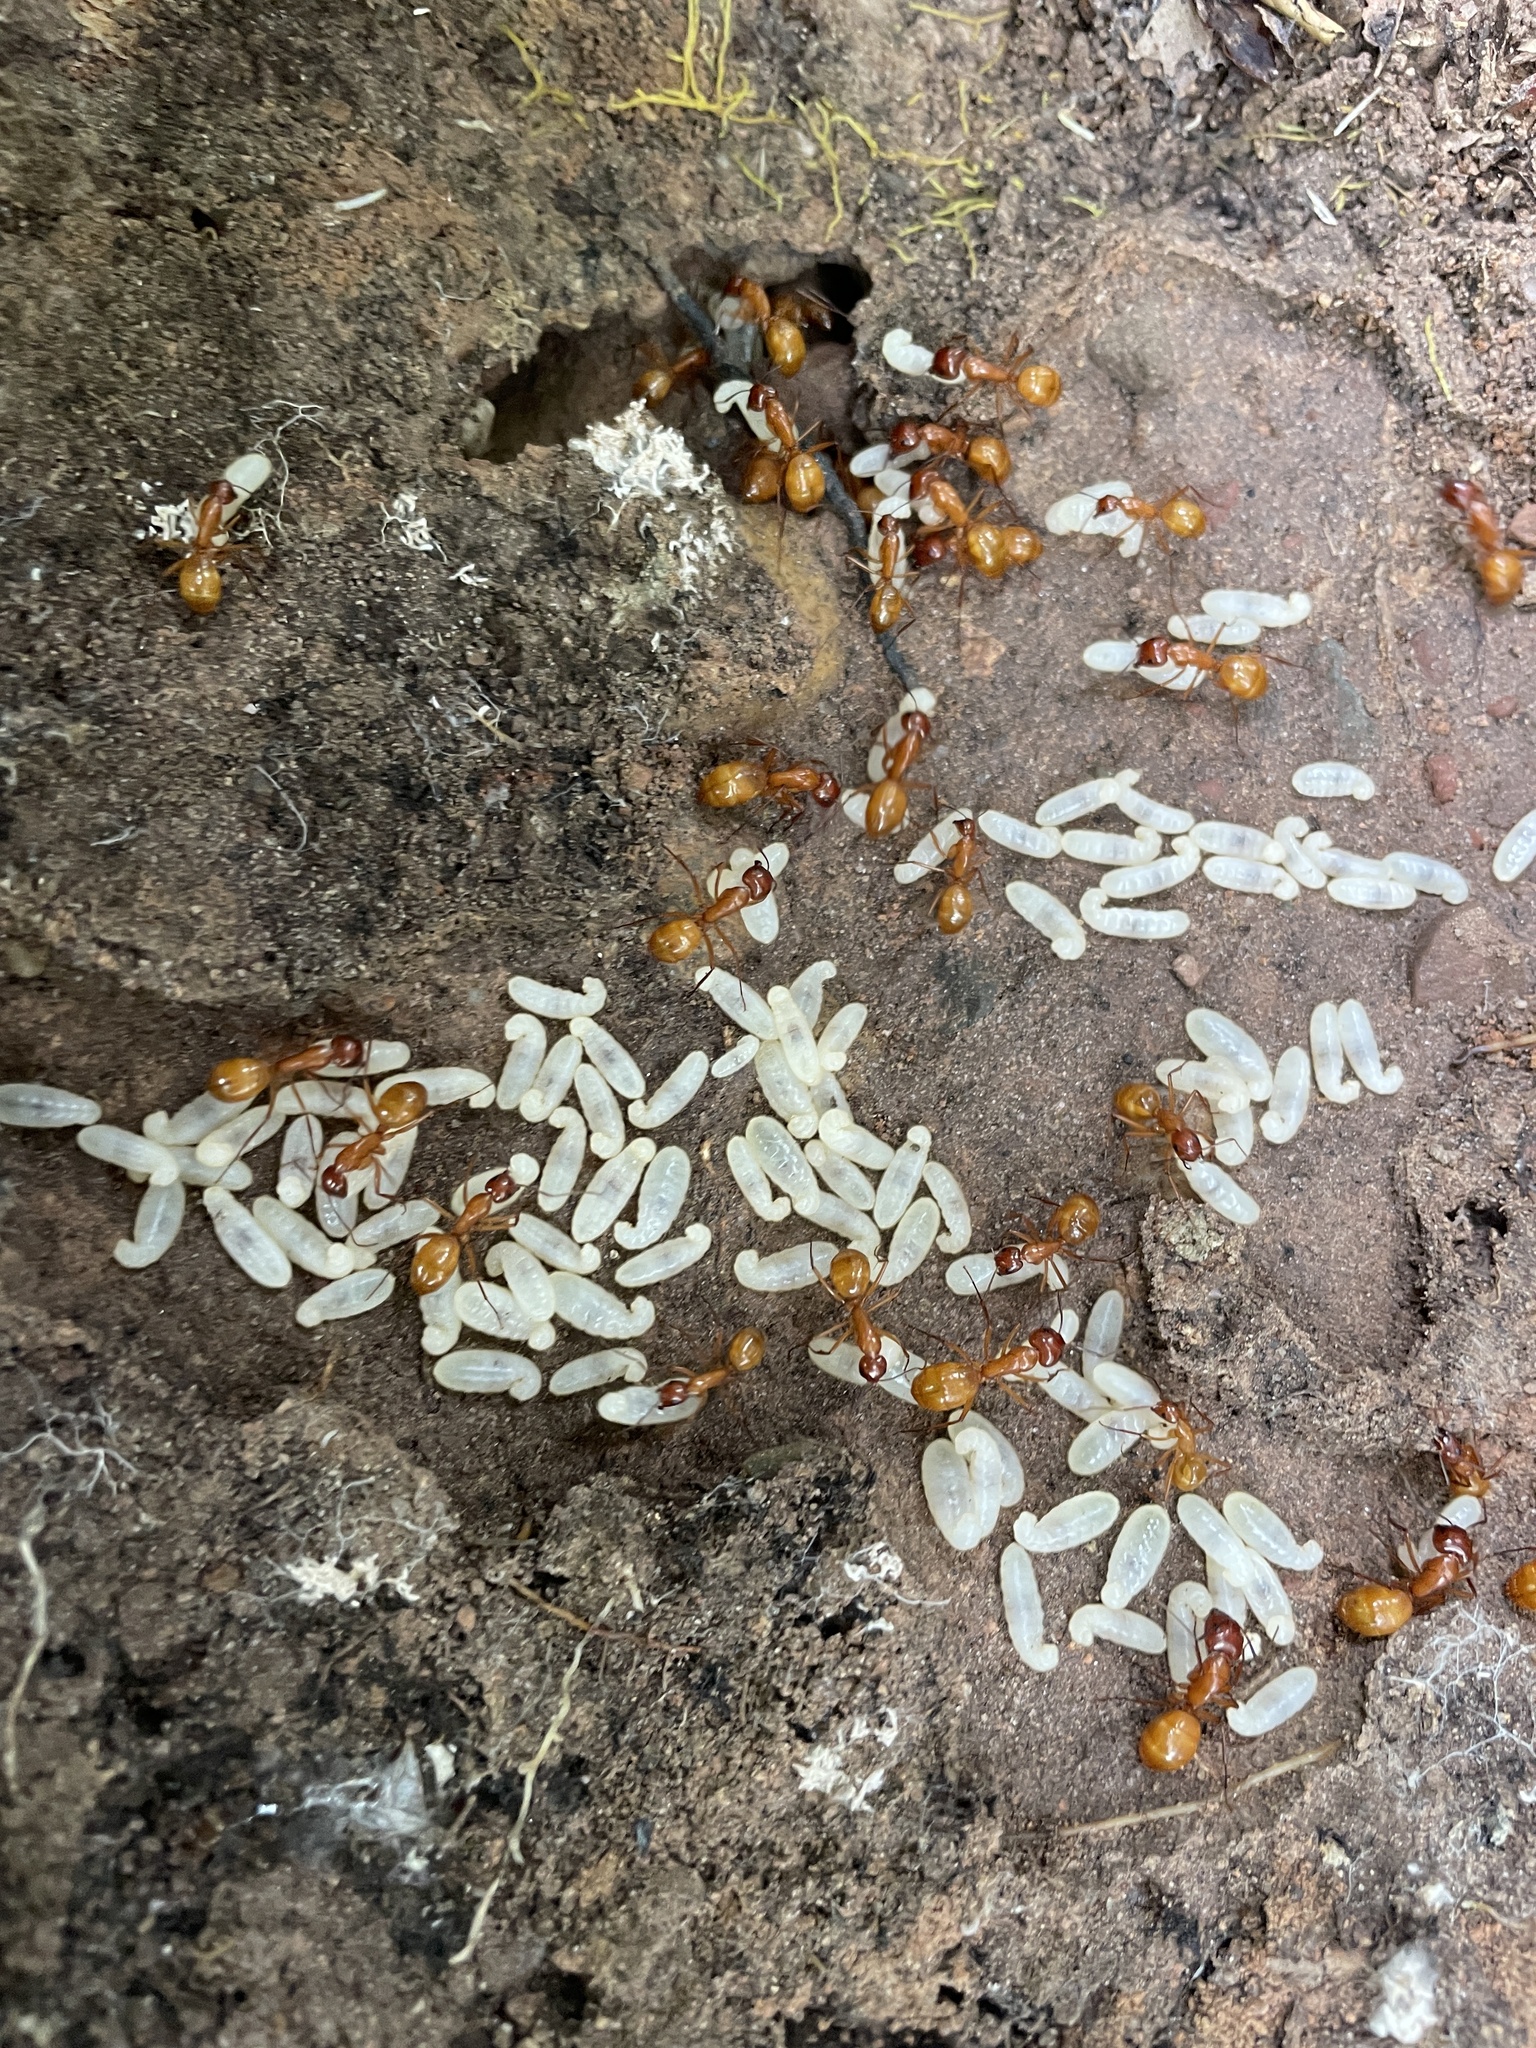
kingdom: Animalia
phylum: Arthropoda
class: Insecta
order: Hymenoptera
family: Formicidae
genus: Camponotus
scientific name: Camponotus castaneus
